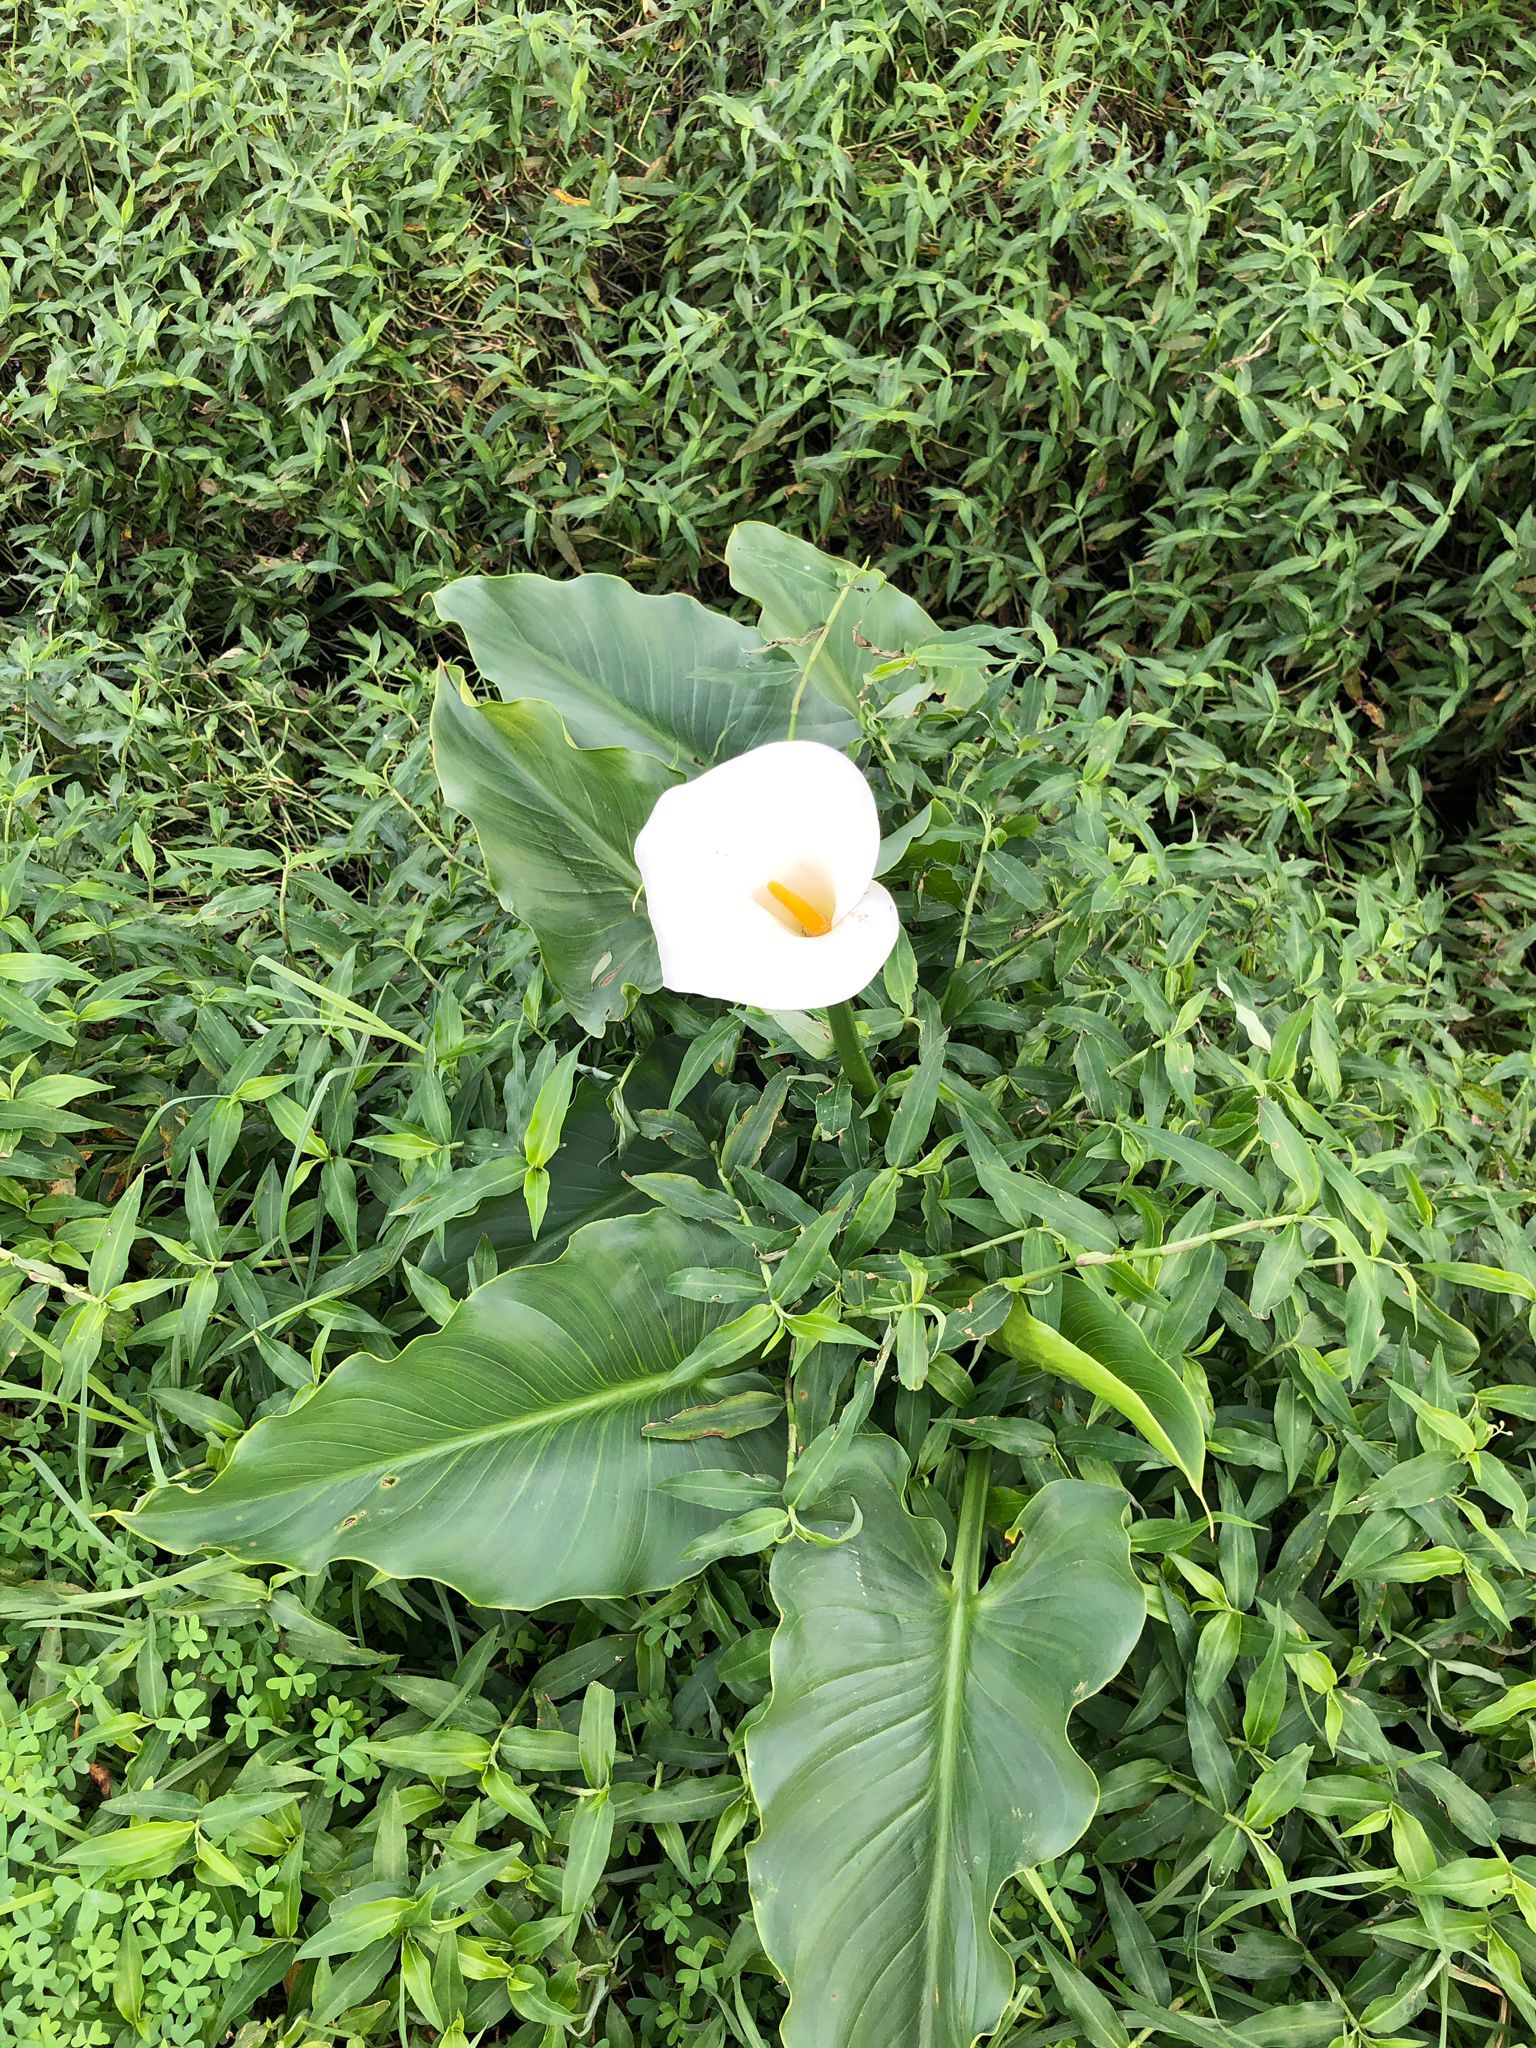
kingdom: Plantae
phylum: Tracheophyta
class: Liliopsida
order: Alismatales
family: Araceae
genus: Zantedeschia
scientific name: Zantedeschia aethiopica
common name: Altar-lily
